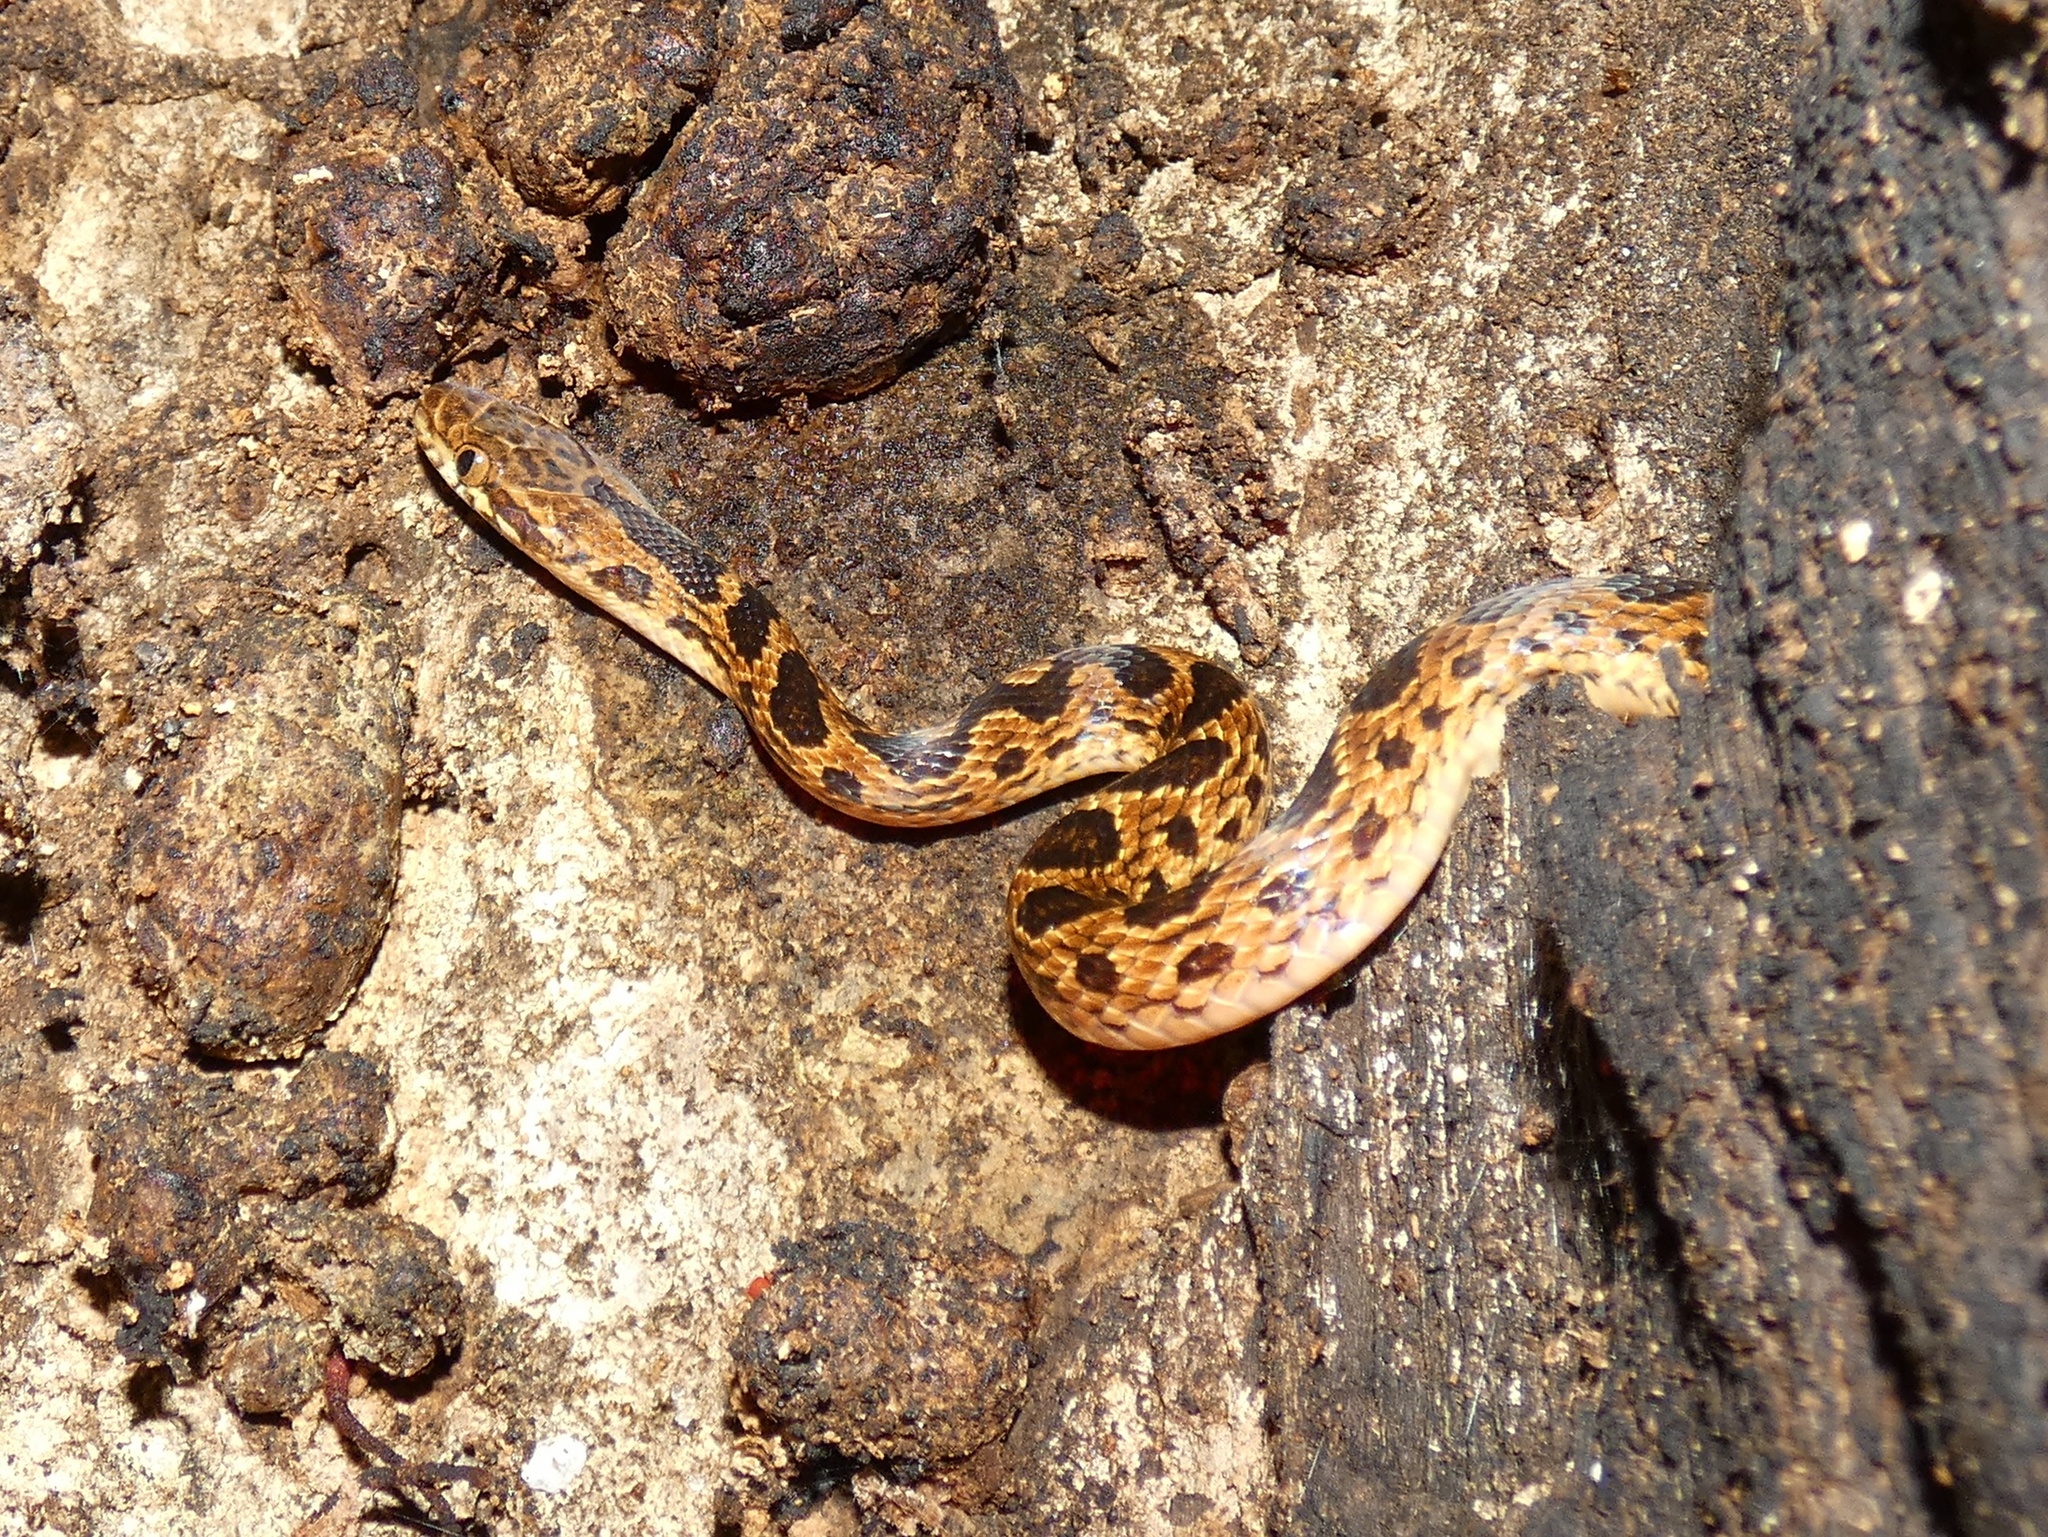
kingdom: Animalia
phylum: Chordata
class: Squamata
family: Colubridae
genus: Leptodeira
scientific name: Leptodeira rhombifera
